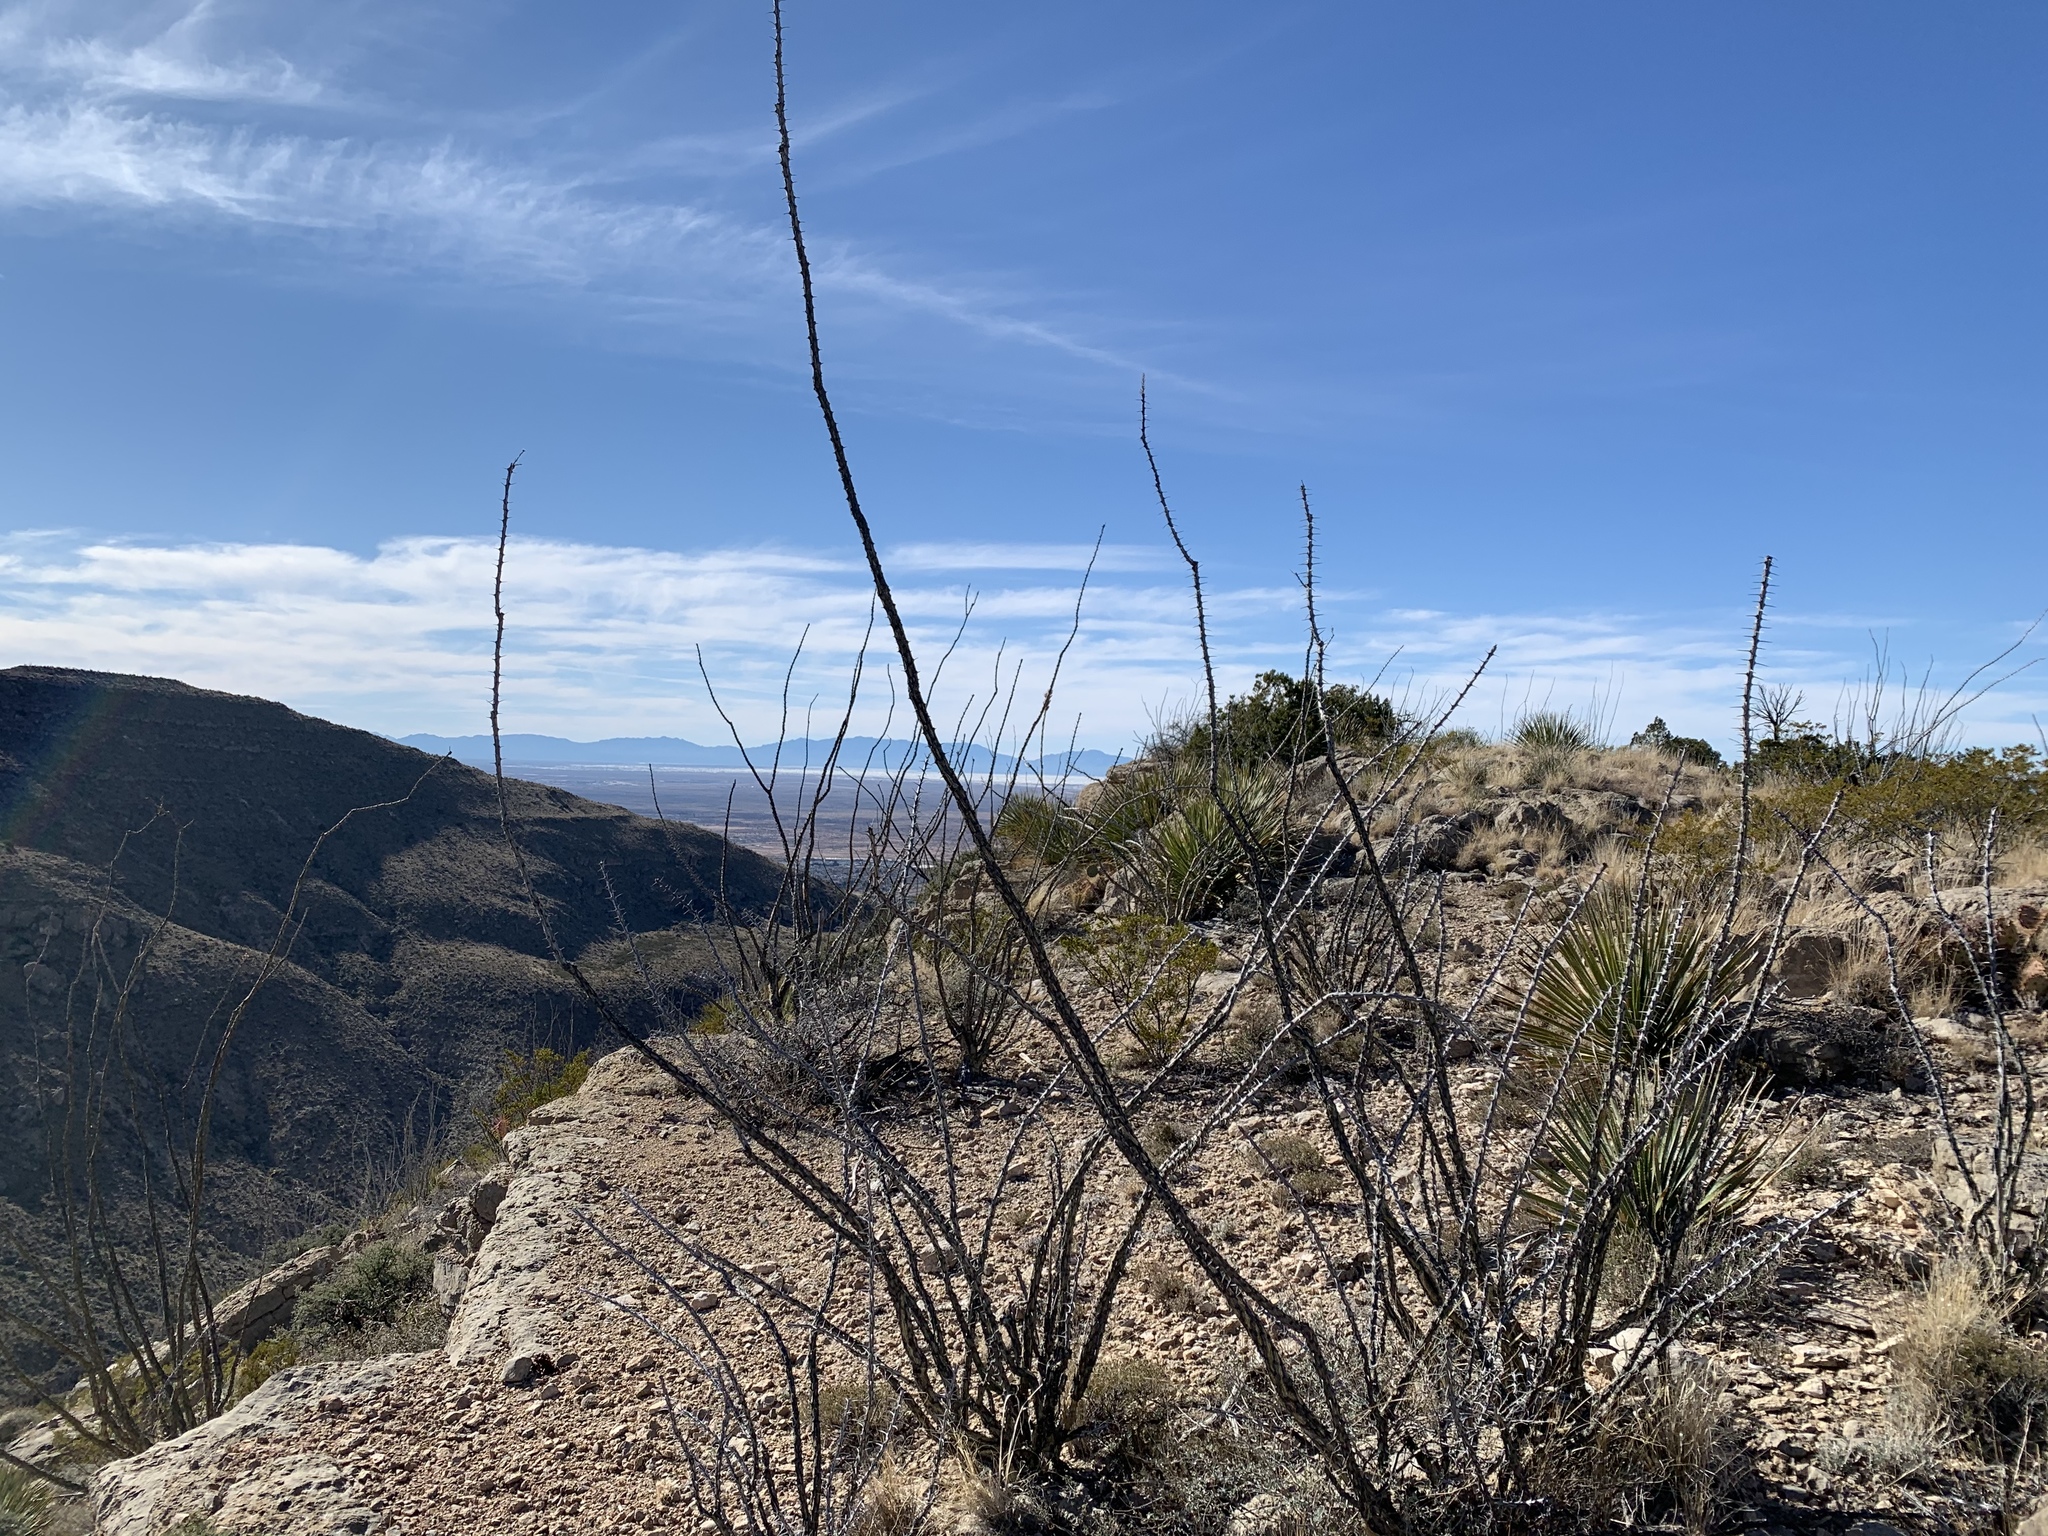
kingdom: Plantae
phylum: Tracheophyta
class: Magnoliopsida
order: Ericales
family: Fouquieriaceae
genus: Fouquieria
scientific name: Fouquieria splendens
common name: Vine-cactus
